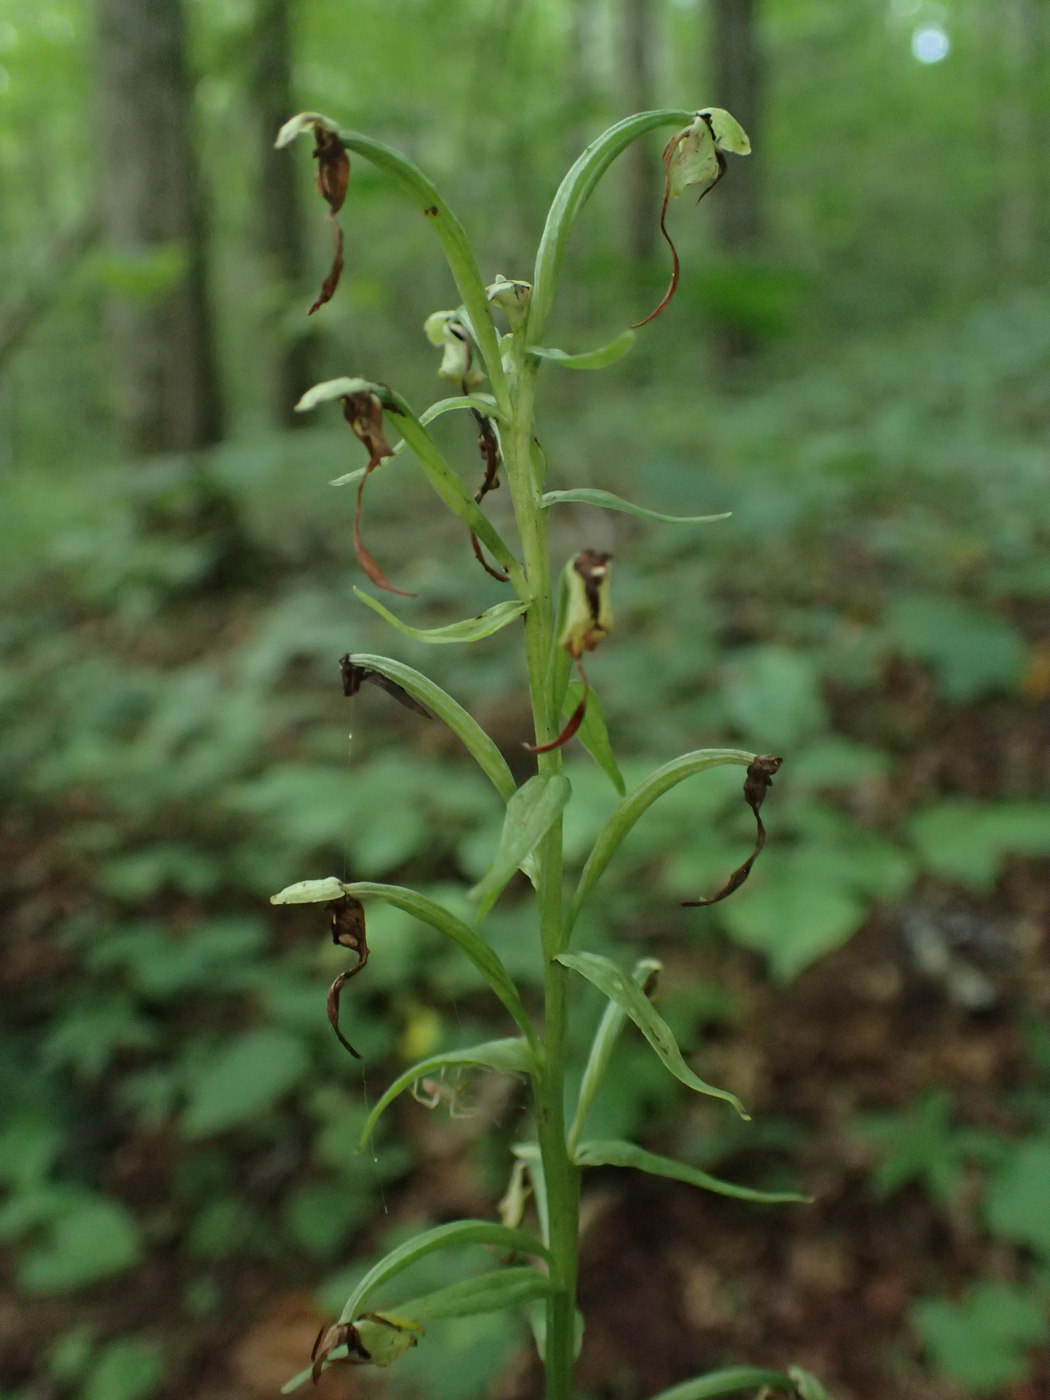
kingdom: Plantae
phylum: Tracheophyta
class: Liliopsida
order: Asparagales
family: Orchidaceae
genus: Platanthera
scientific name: Platanthera lacera
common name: Green fringed orchid
